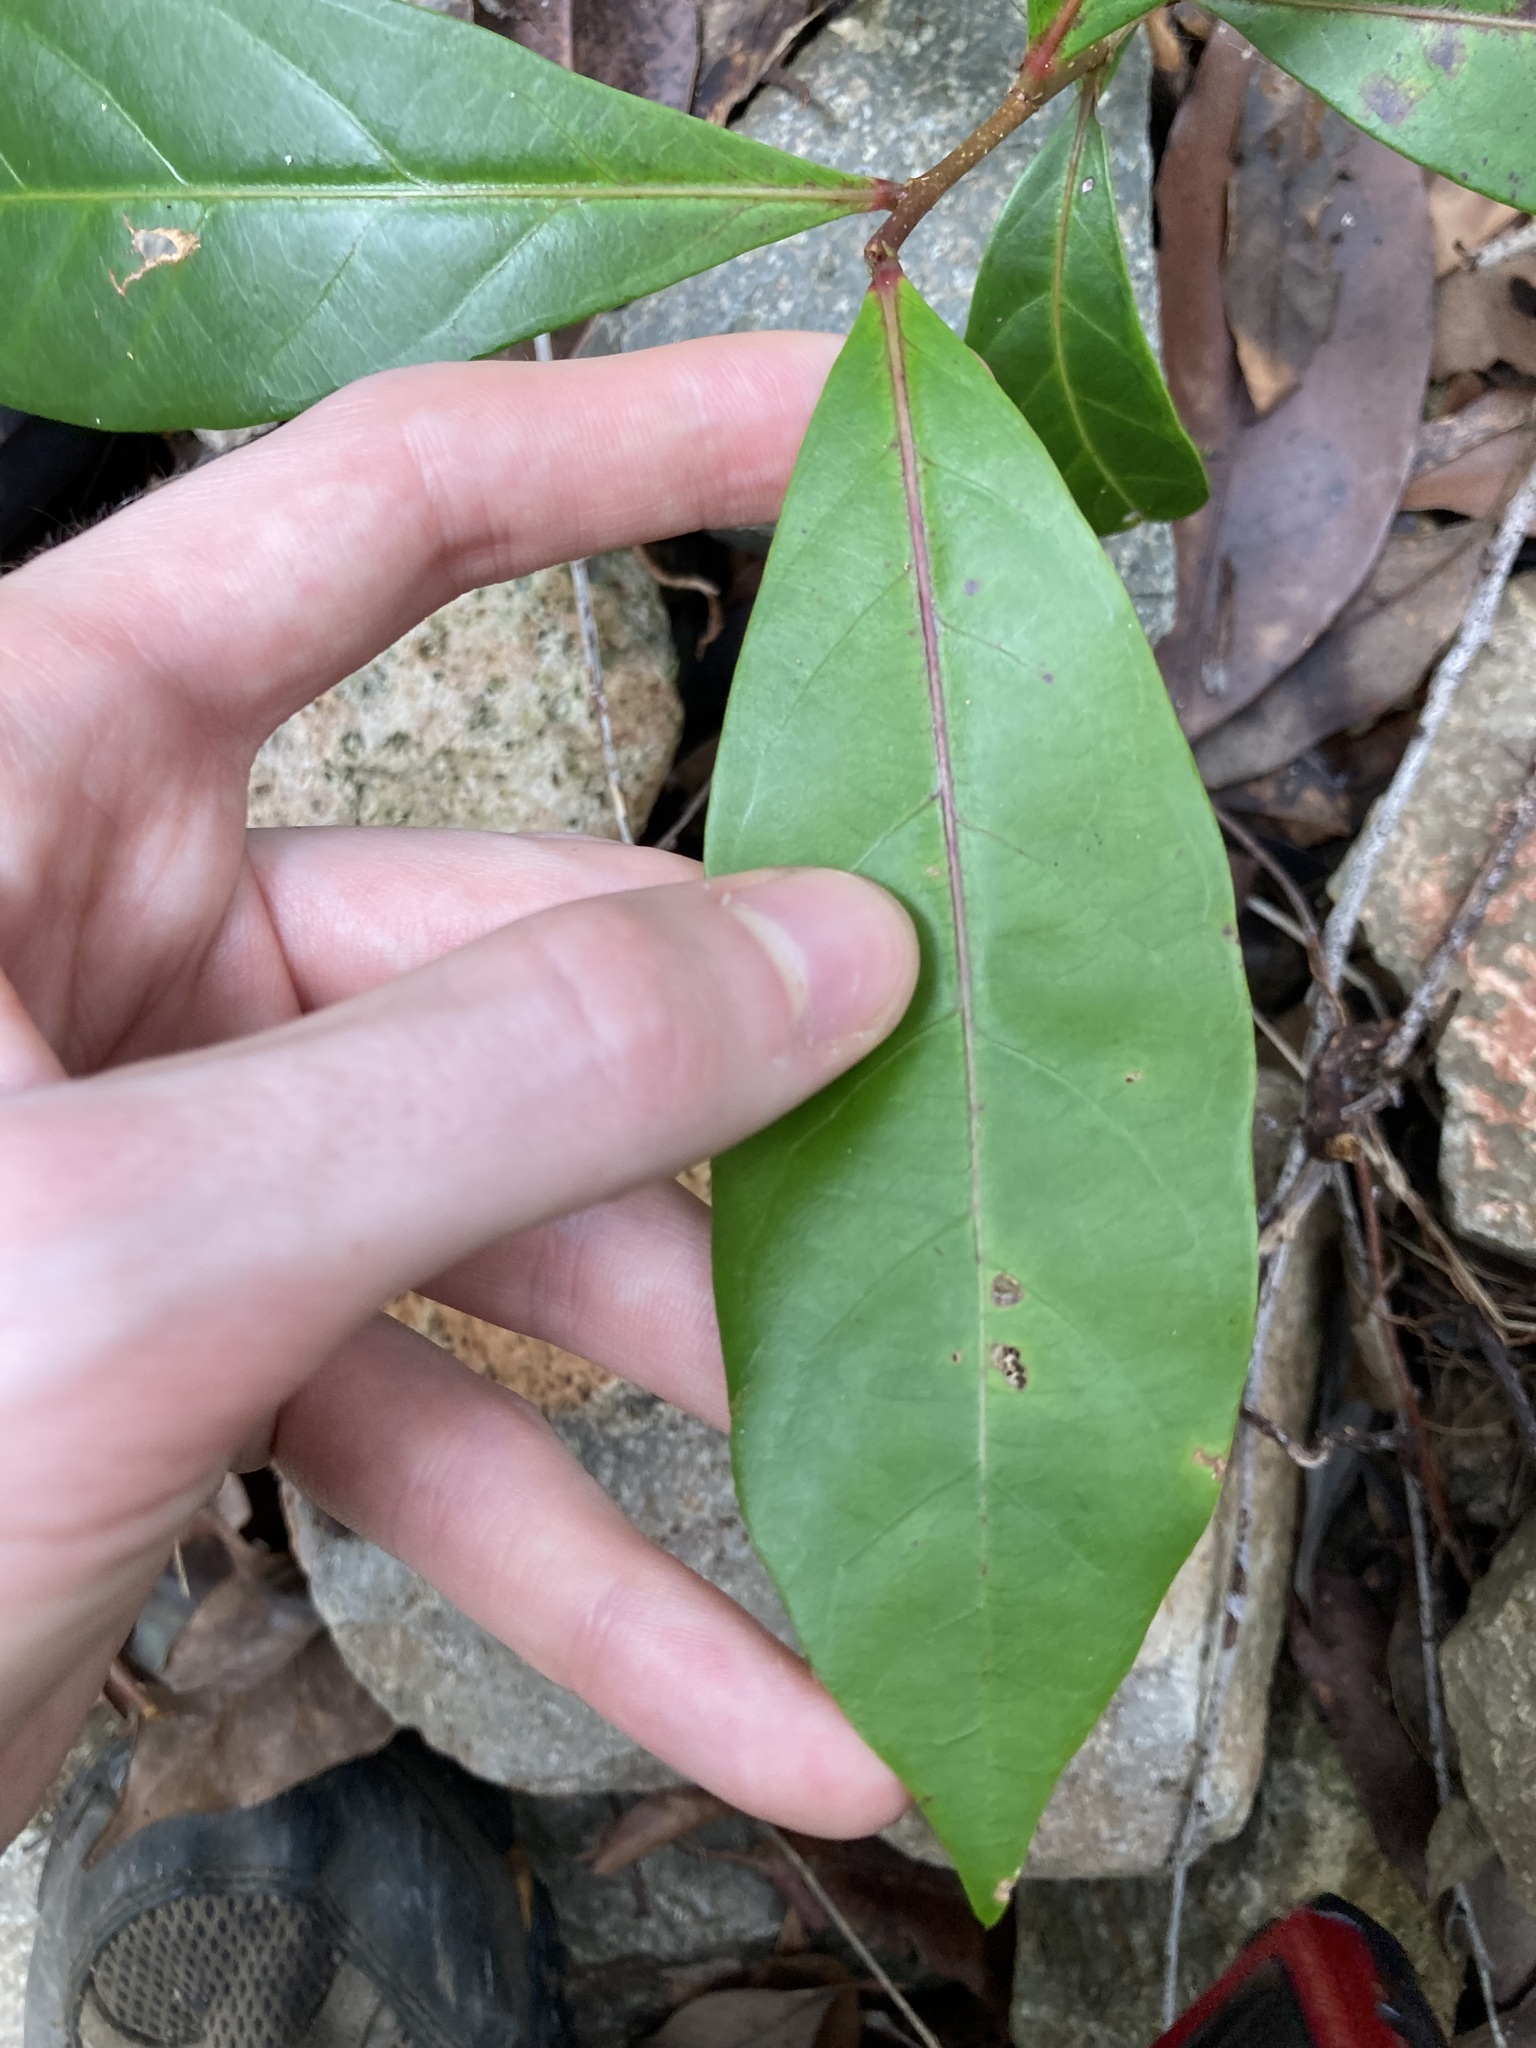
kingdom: Plantae
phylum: Tracheophyta
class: Magnoliopsida
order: Malpighiales
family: Phyllanthaceae
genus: Glochidion
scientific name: Glochidion ferdinandi
